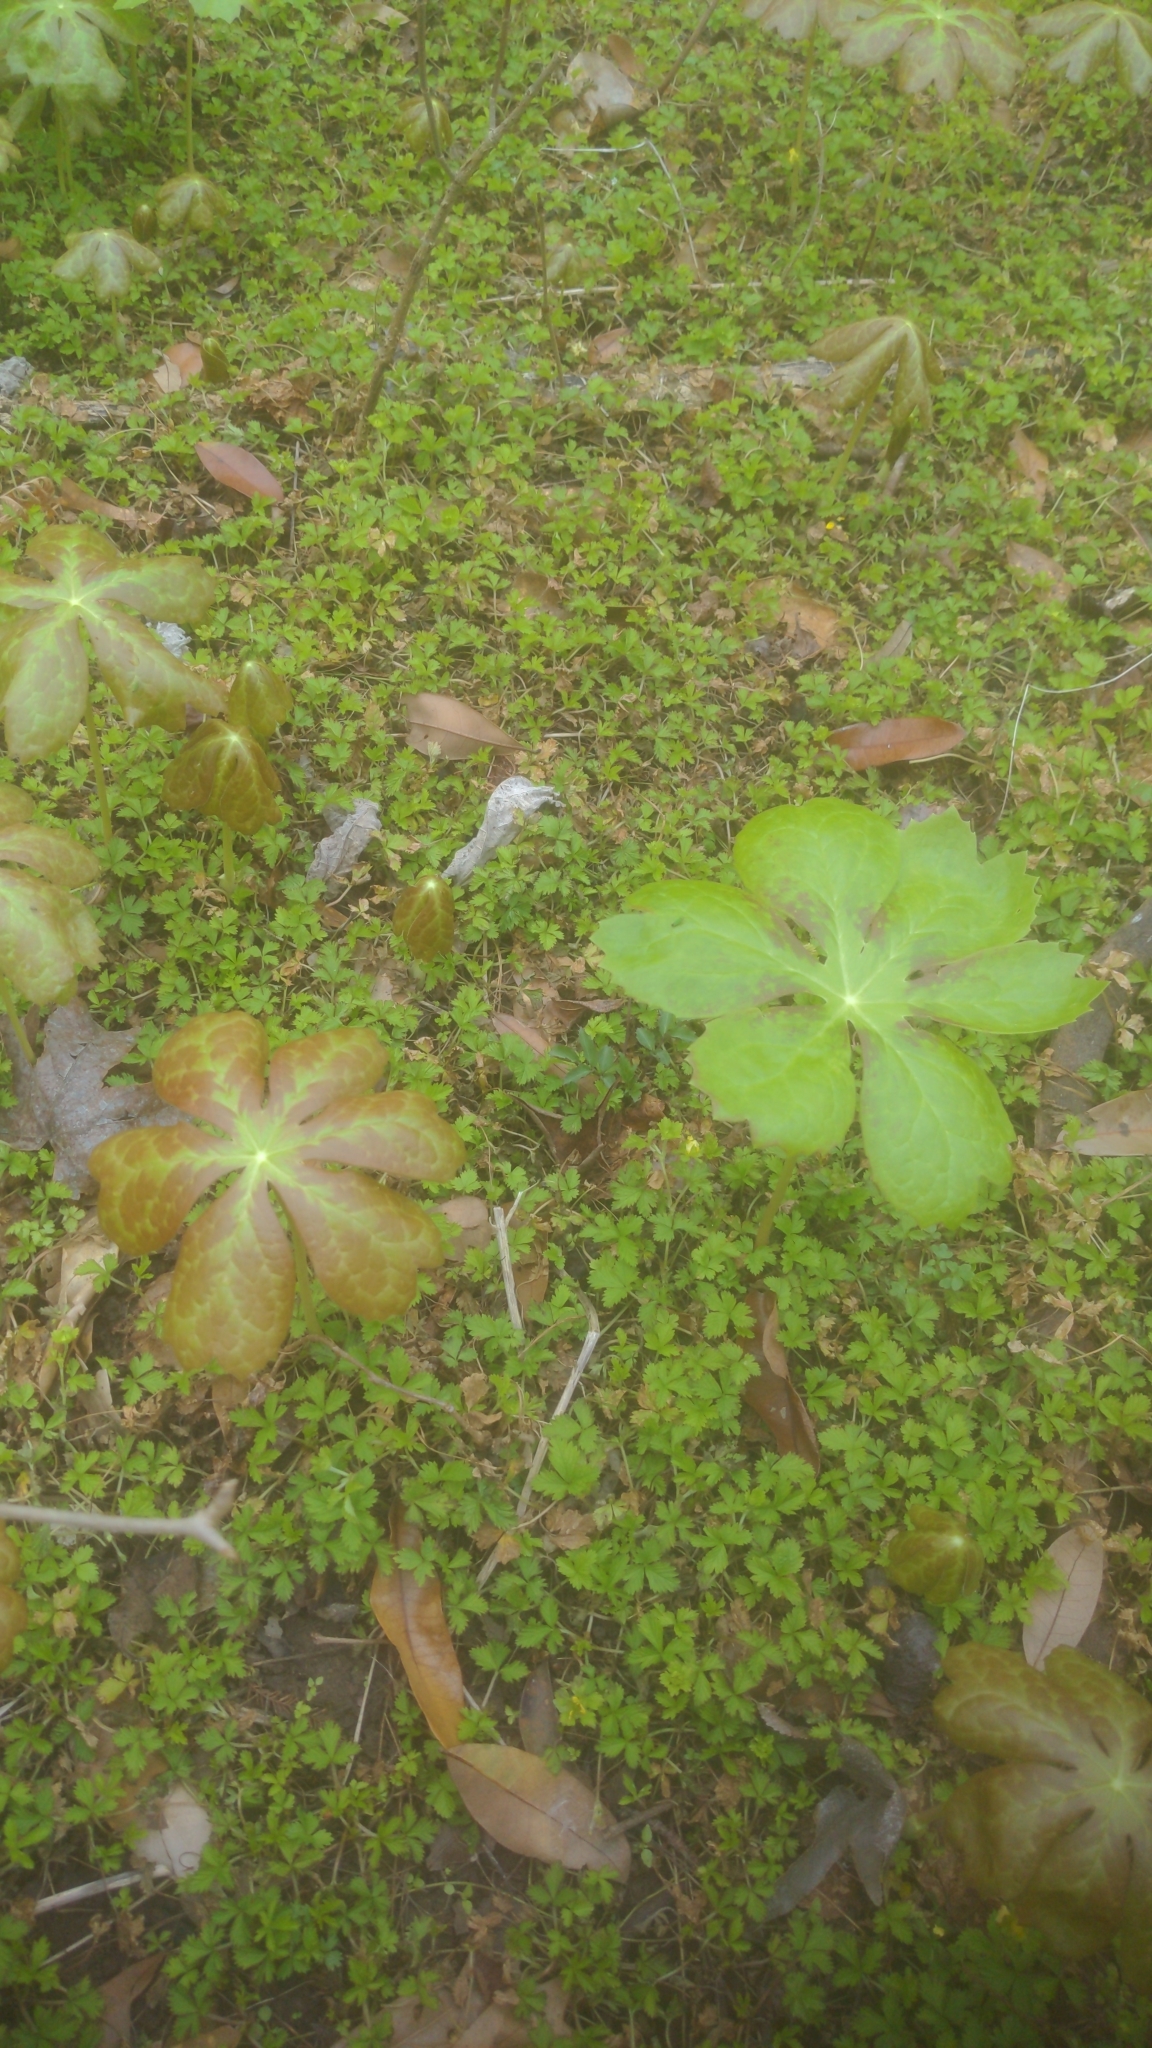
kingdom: Plantae
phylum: Tracheophyta
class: Magnoliopsida
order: Ranunculales
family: Berberidaceae
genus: Podophyllum
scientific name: Podophyllum peltatum
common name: Wild mandrake
